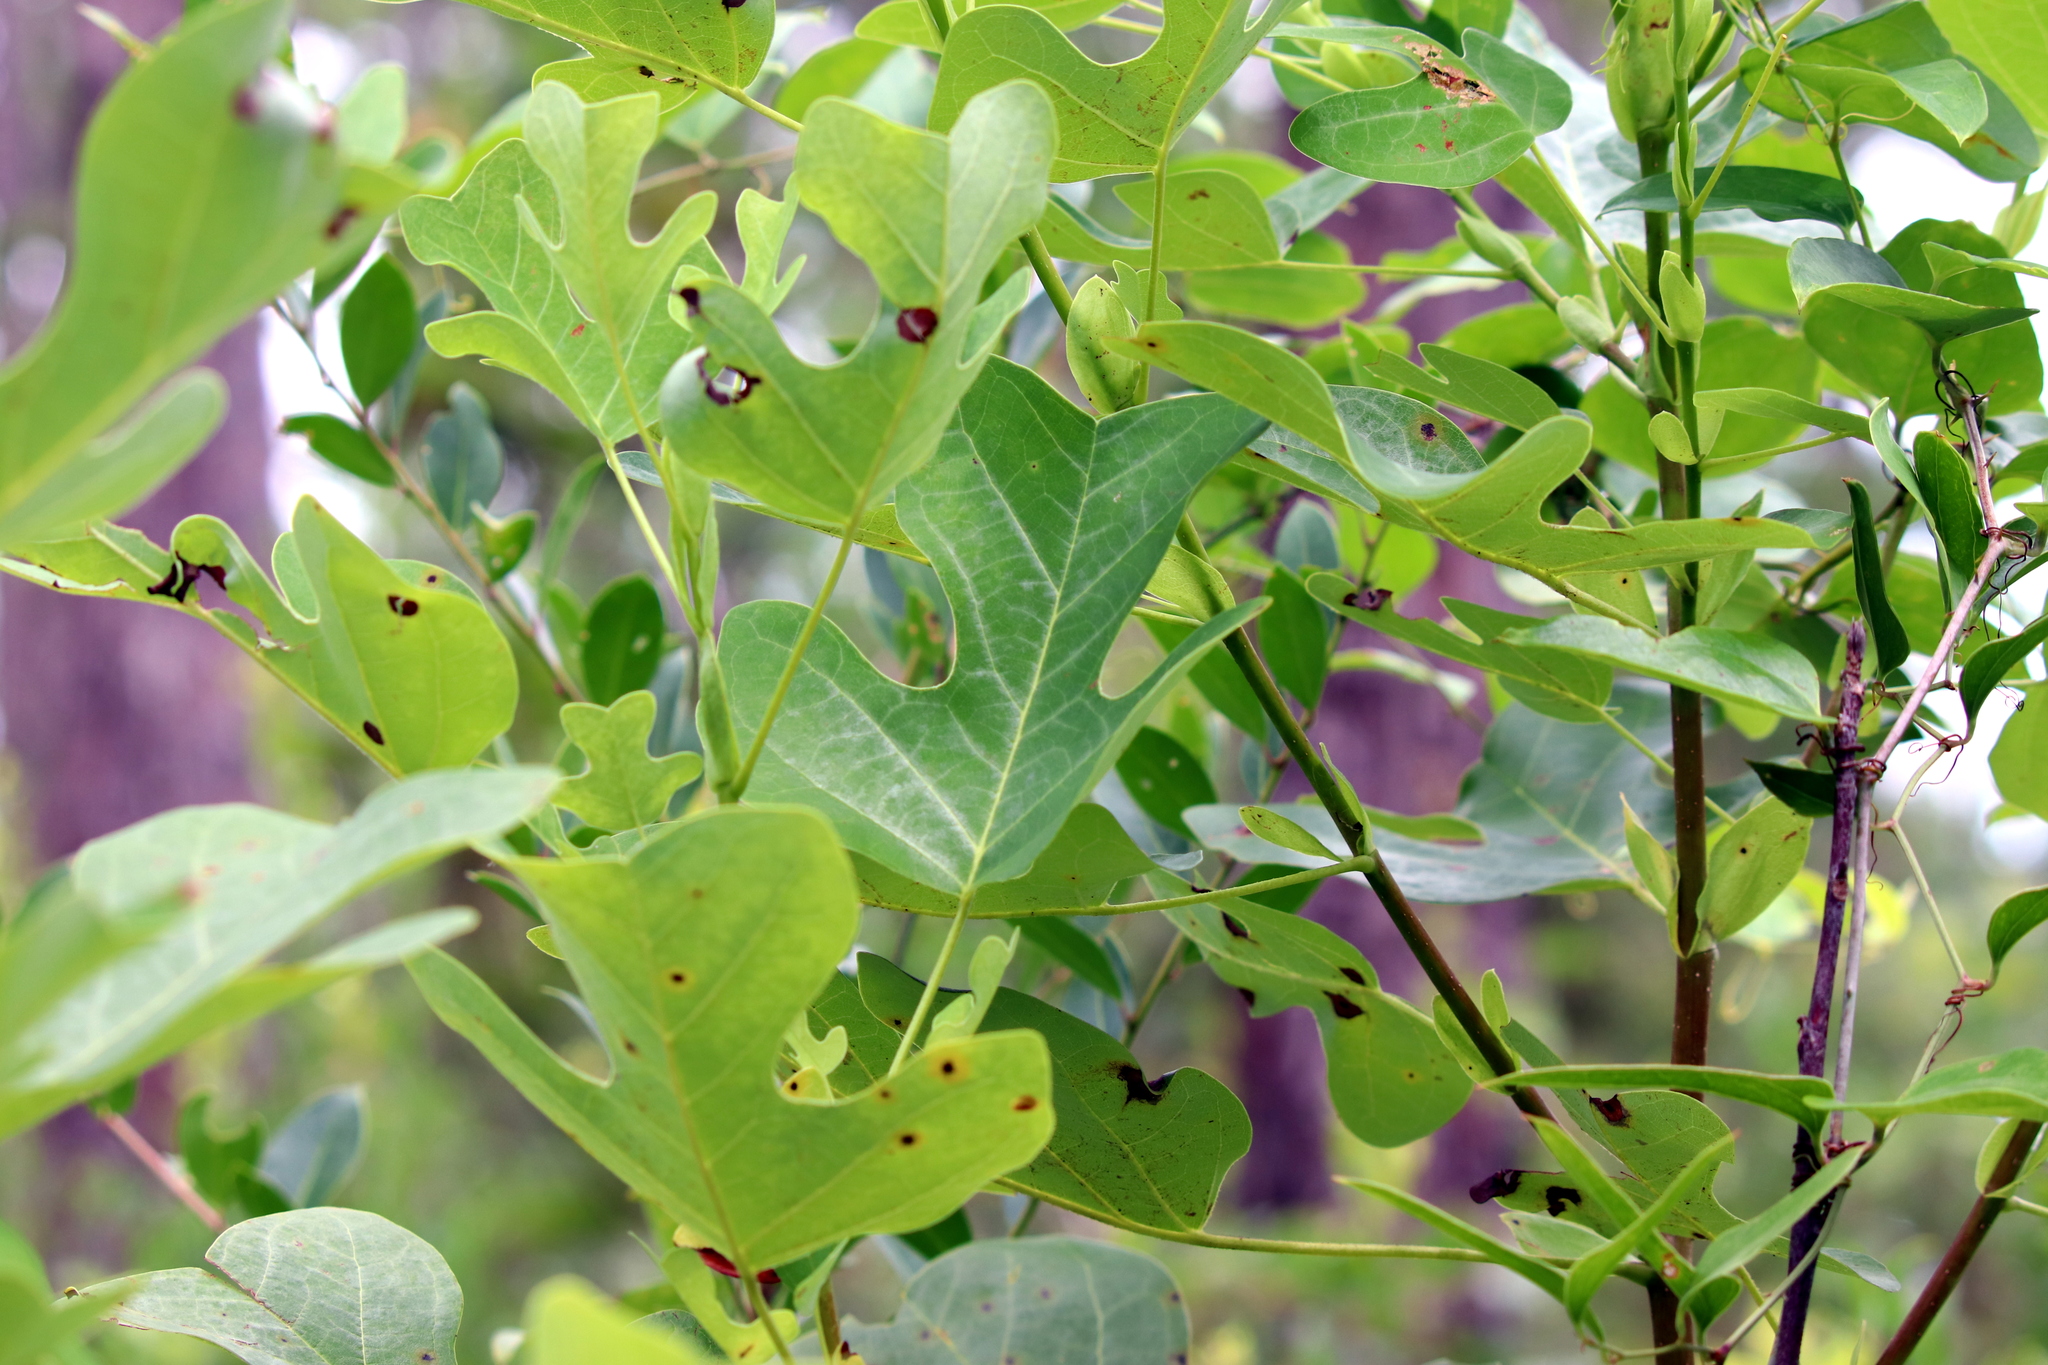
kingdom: Plantae
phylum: Tracheophyta
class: Magnoliopsida
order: Magnoliales
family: Magnoliaceae
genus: Liriodendron
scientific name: Liriodendron tulipifera
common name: Tulip tree
